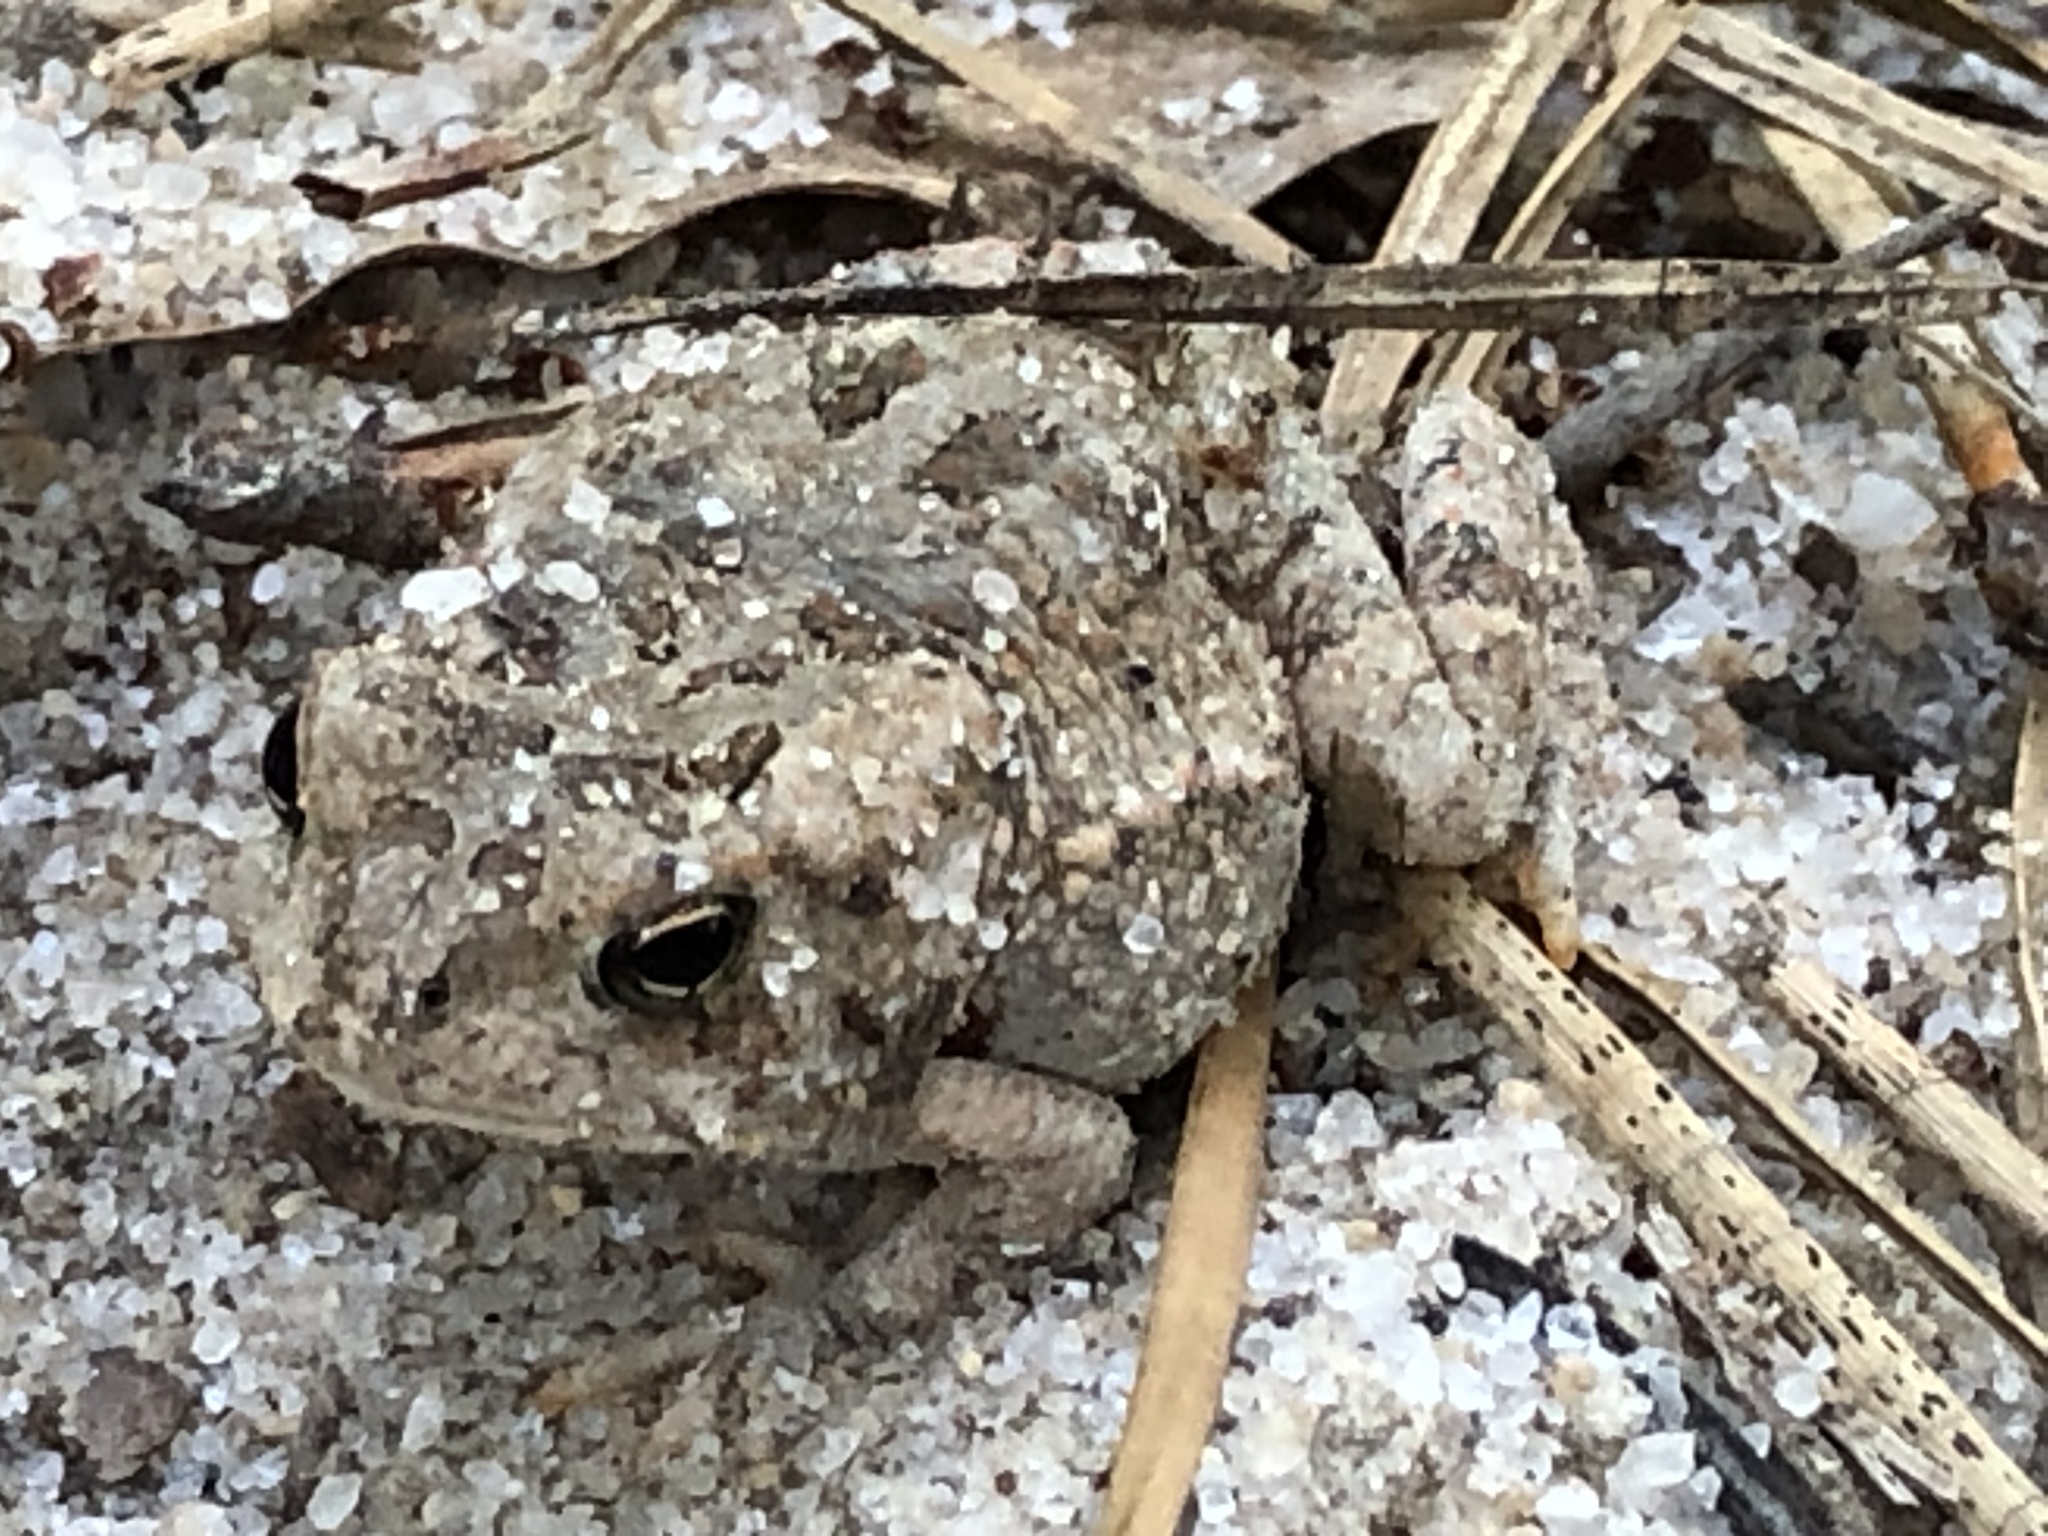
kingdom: Animalia
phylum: Chordata
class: Amphibia
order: Anura
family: Bufonidae
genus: Anaxyrus
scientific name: Anaxyrus fowleri
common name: Fowler's toad
